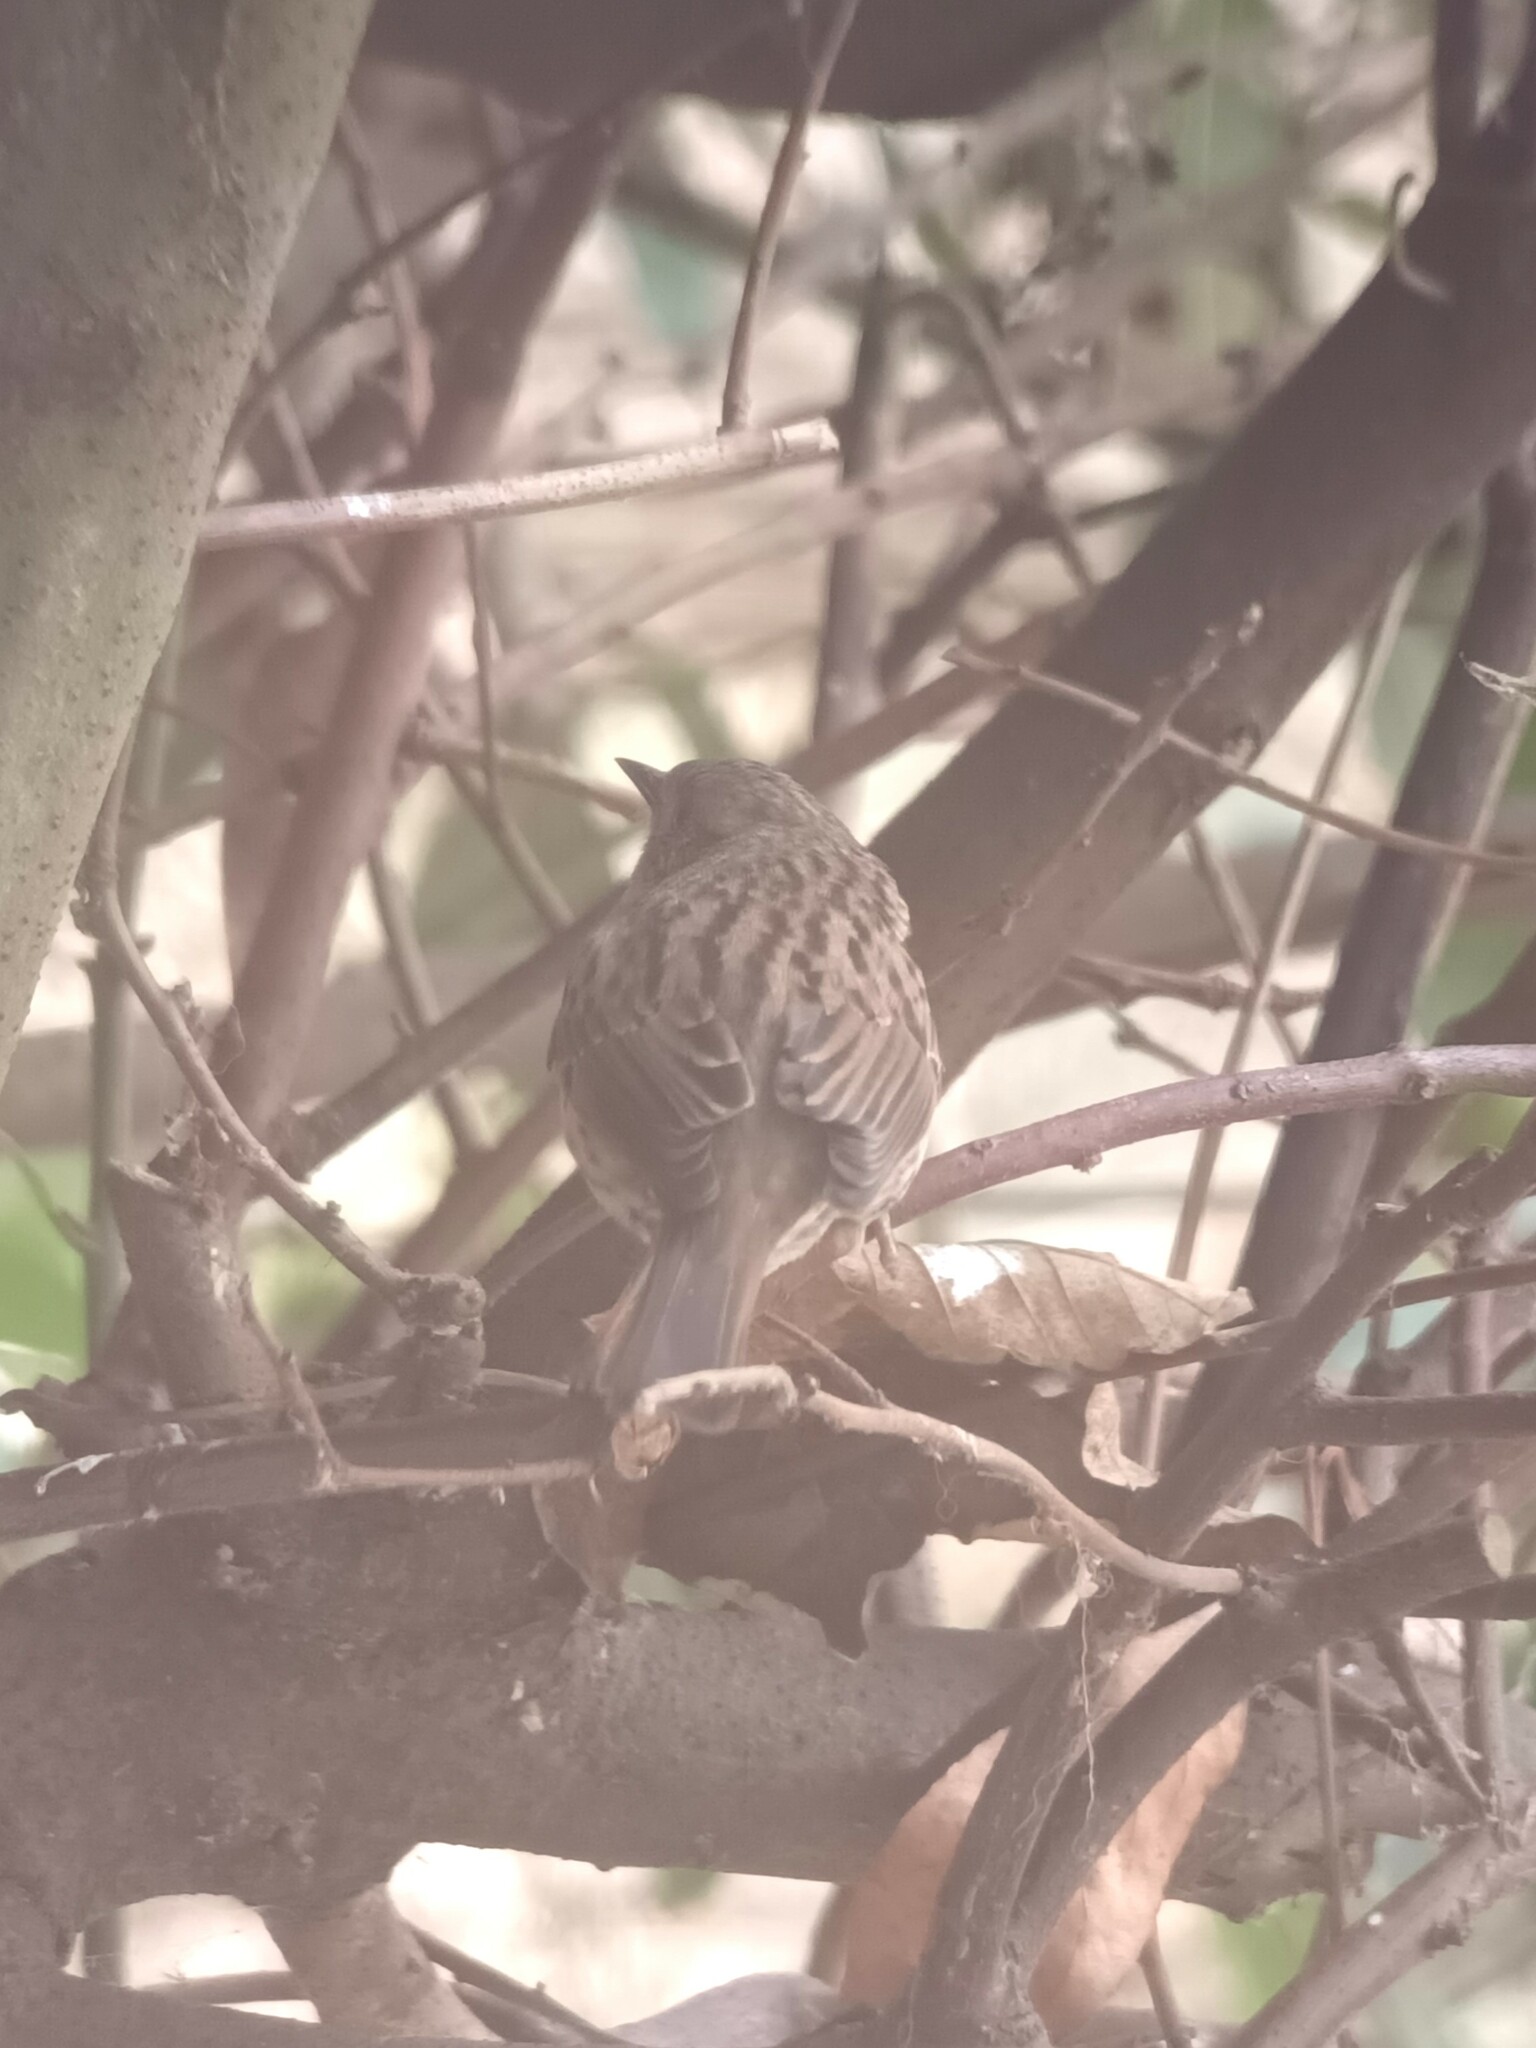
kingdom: Animalia
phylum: Chordata
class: Aves
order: Passeriformes
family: Prunellidae
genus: Prunella
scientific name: Prunella modularis
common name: Dunnock
